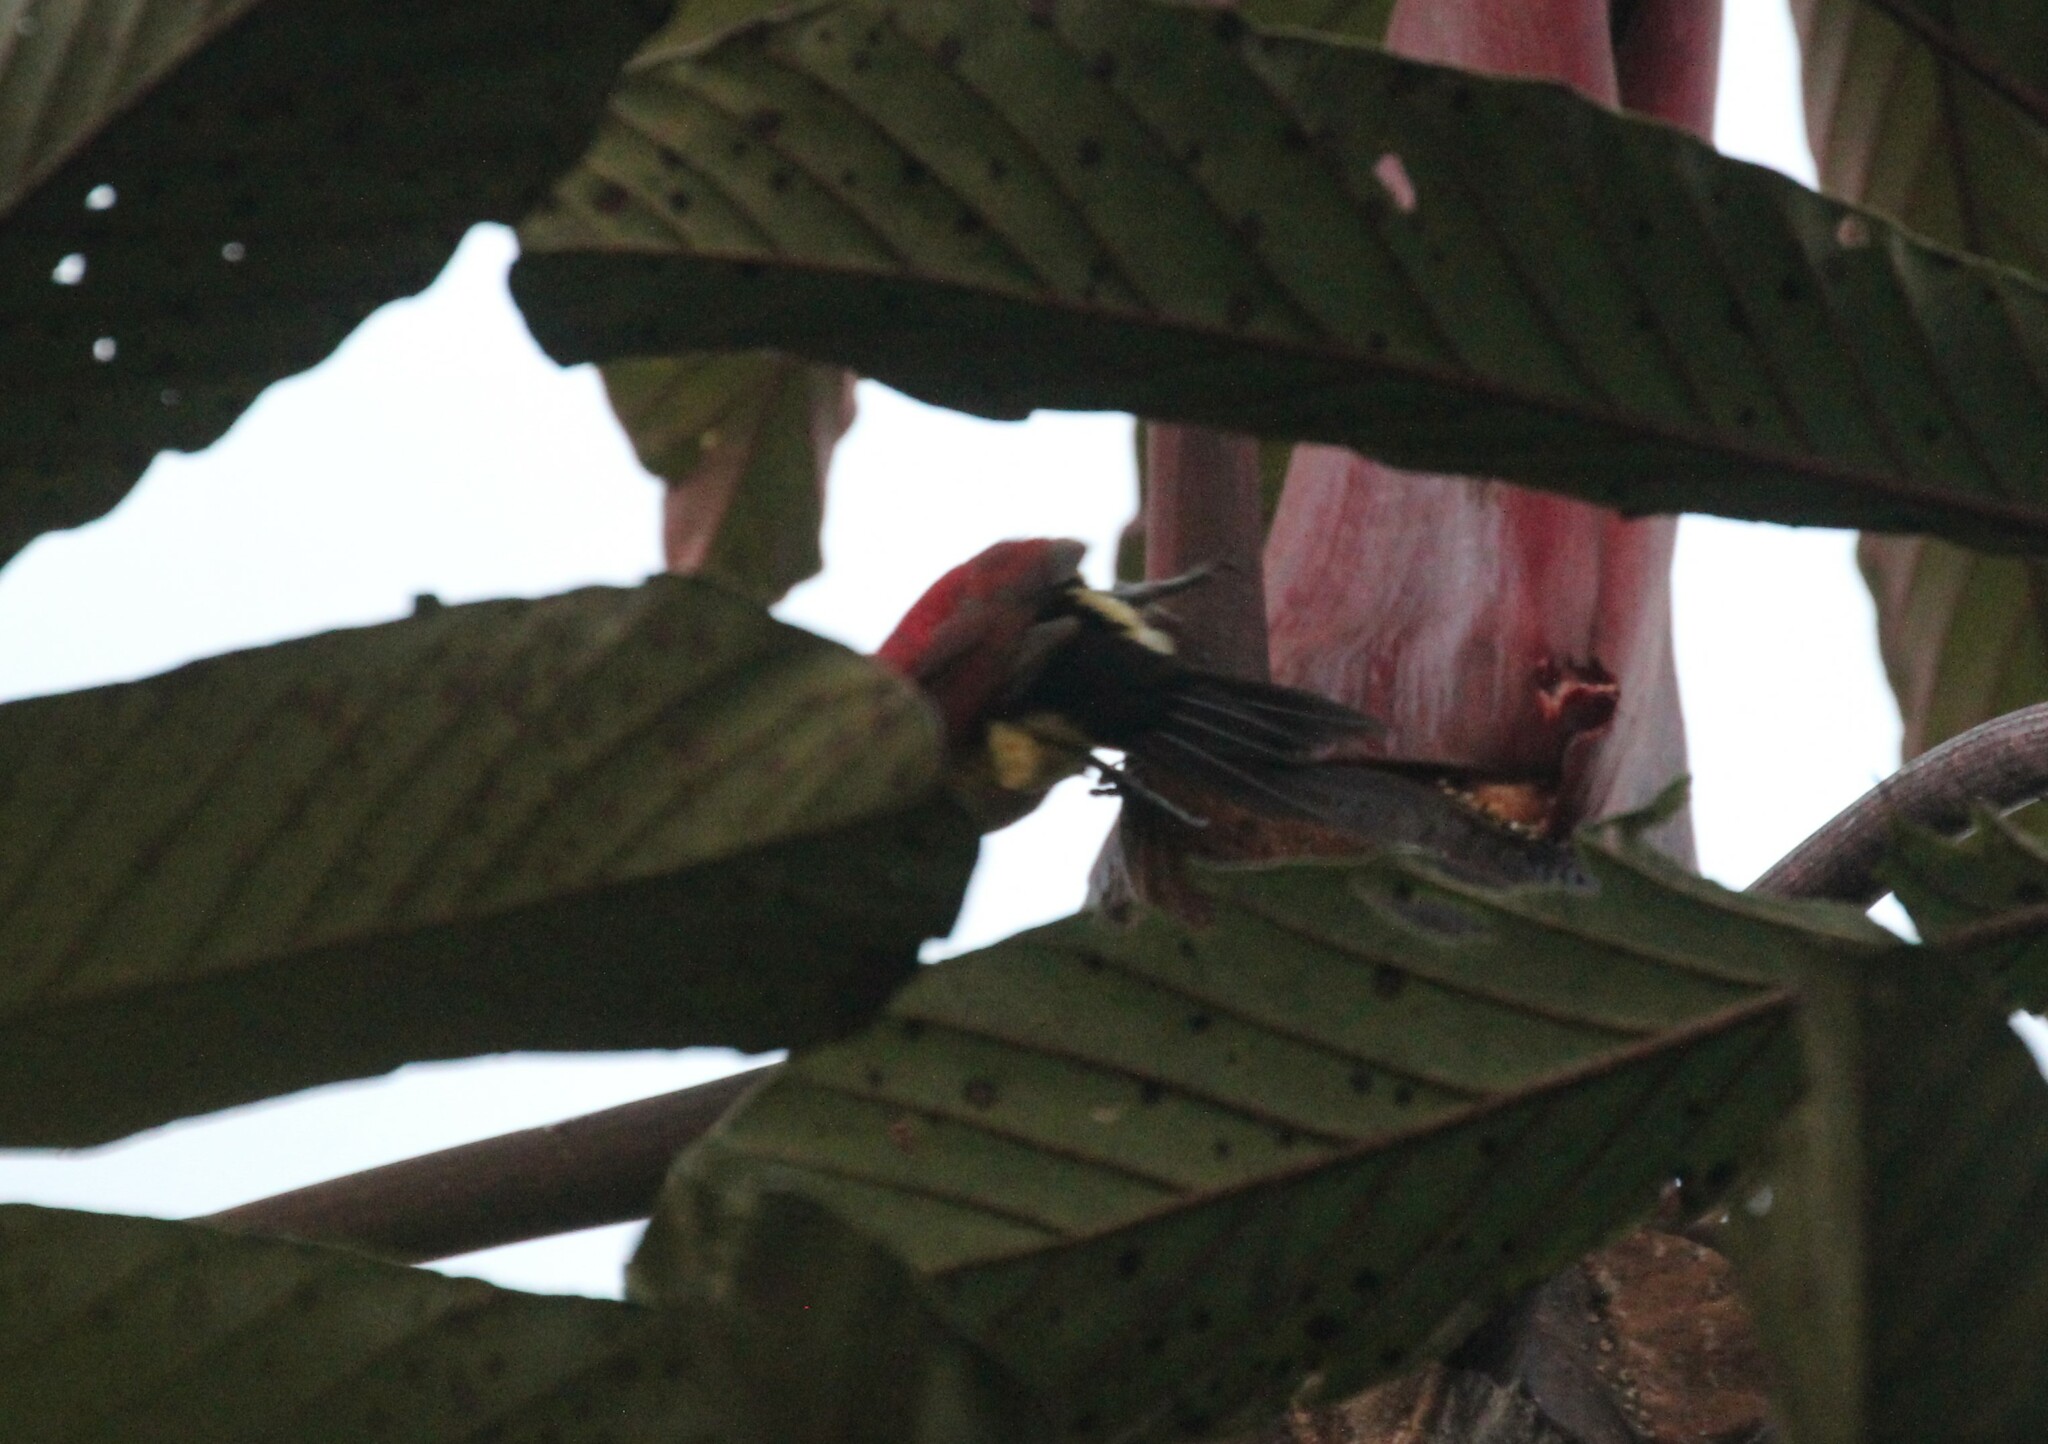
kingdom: Animalia
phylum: Chordata
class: Aves
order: Piciformes
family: Picidae
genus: Colaptes
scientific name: Colaptes rivolii
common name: Crimson-mantled woodpecker
